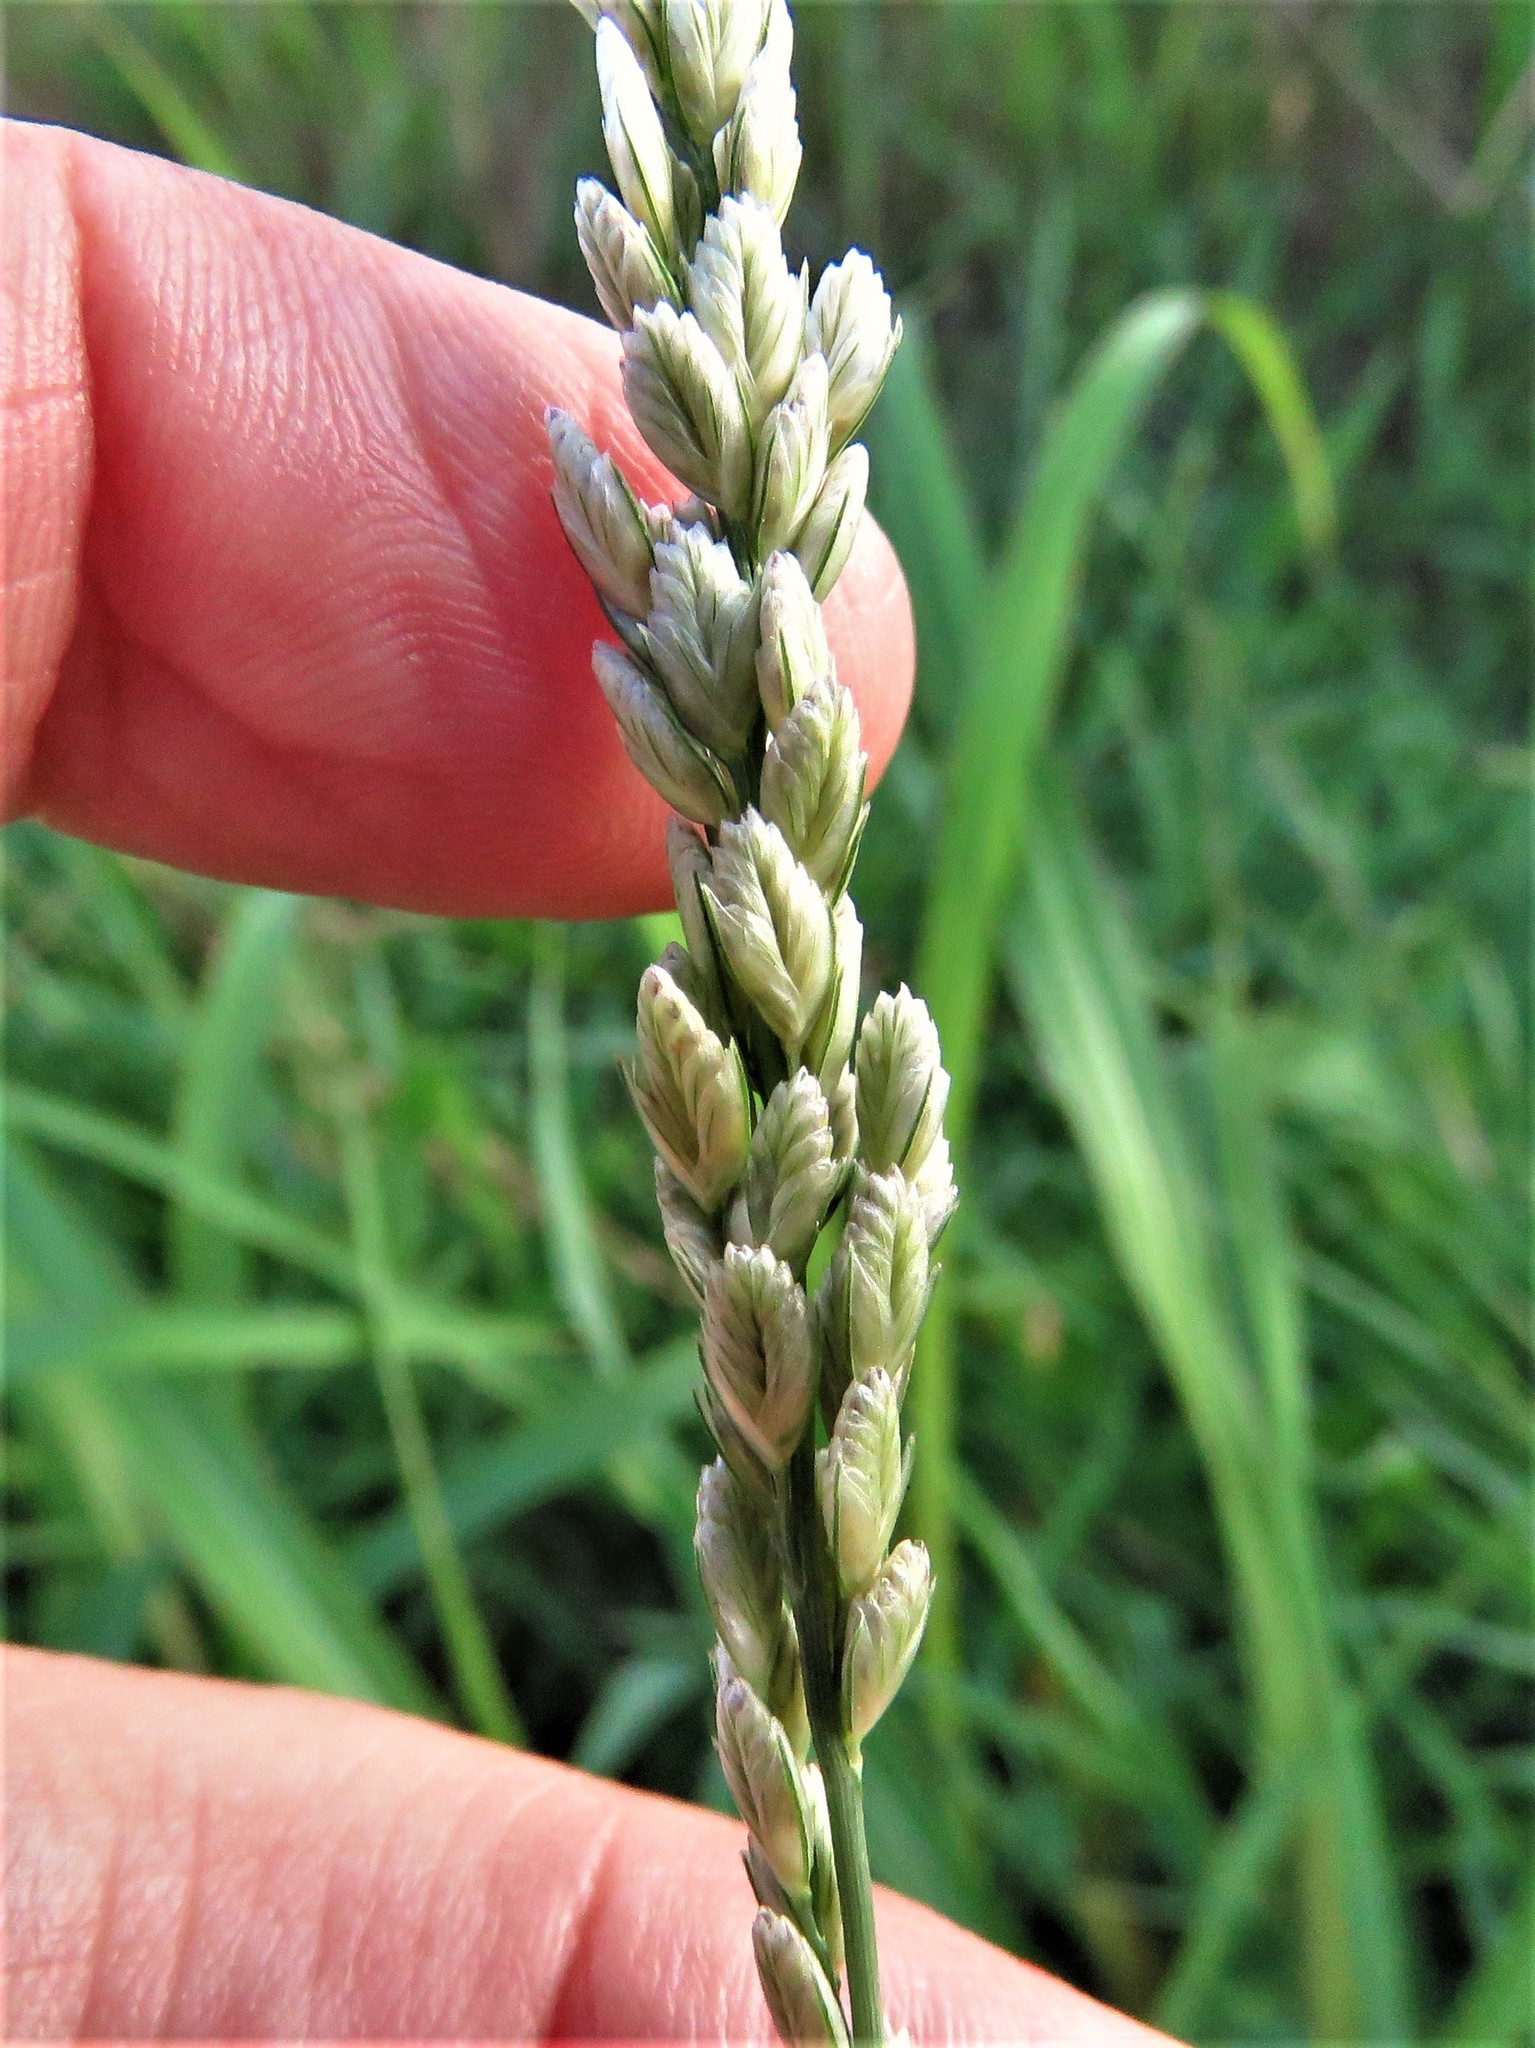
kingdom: Plantae
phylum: Tracheophyta
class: Liliopsida
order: Poales
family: Poaceae
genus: Tridens
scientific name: Tridens albescens
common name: White tridens
